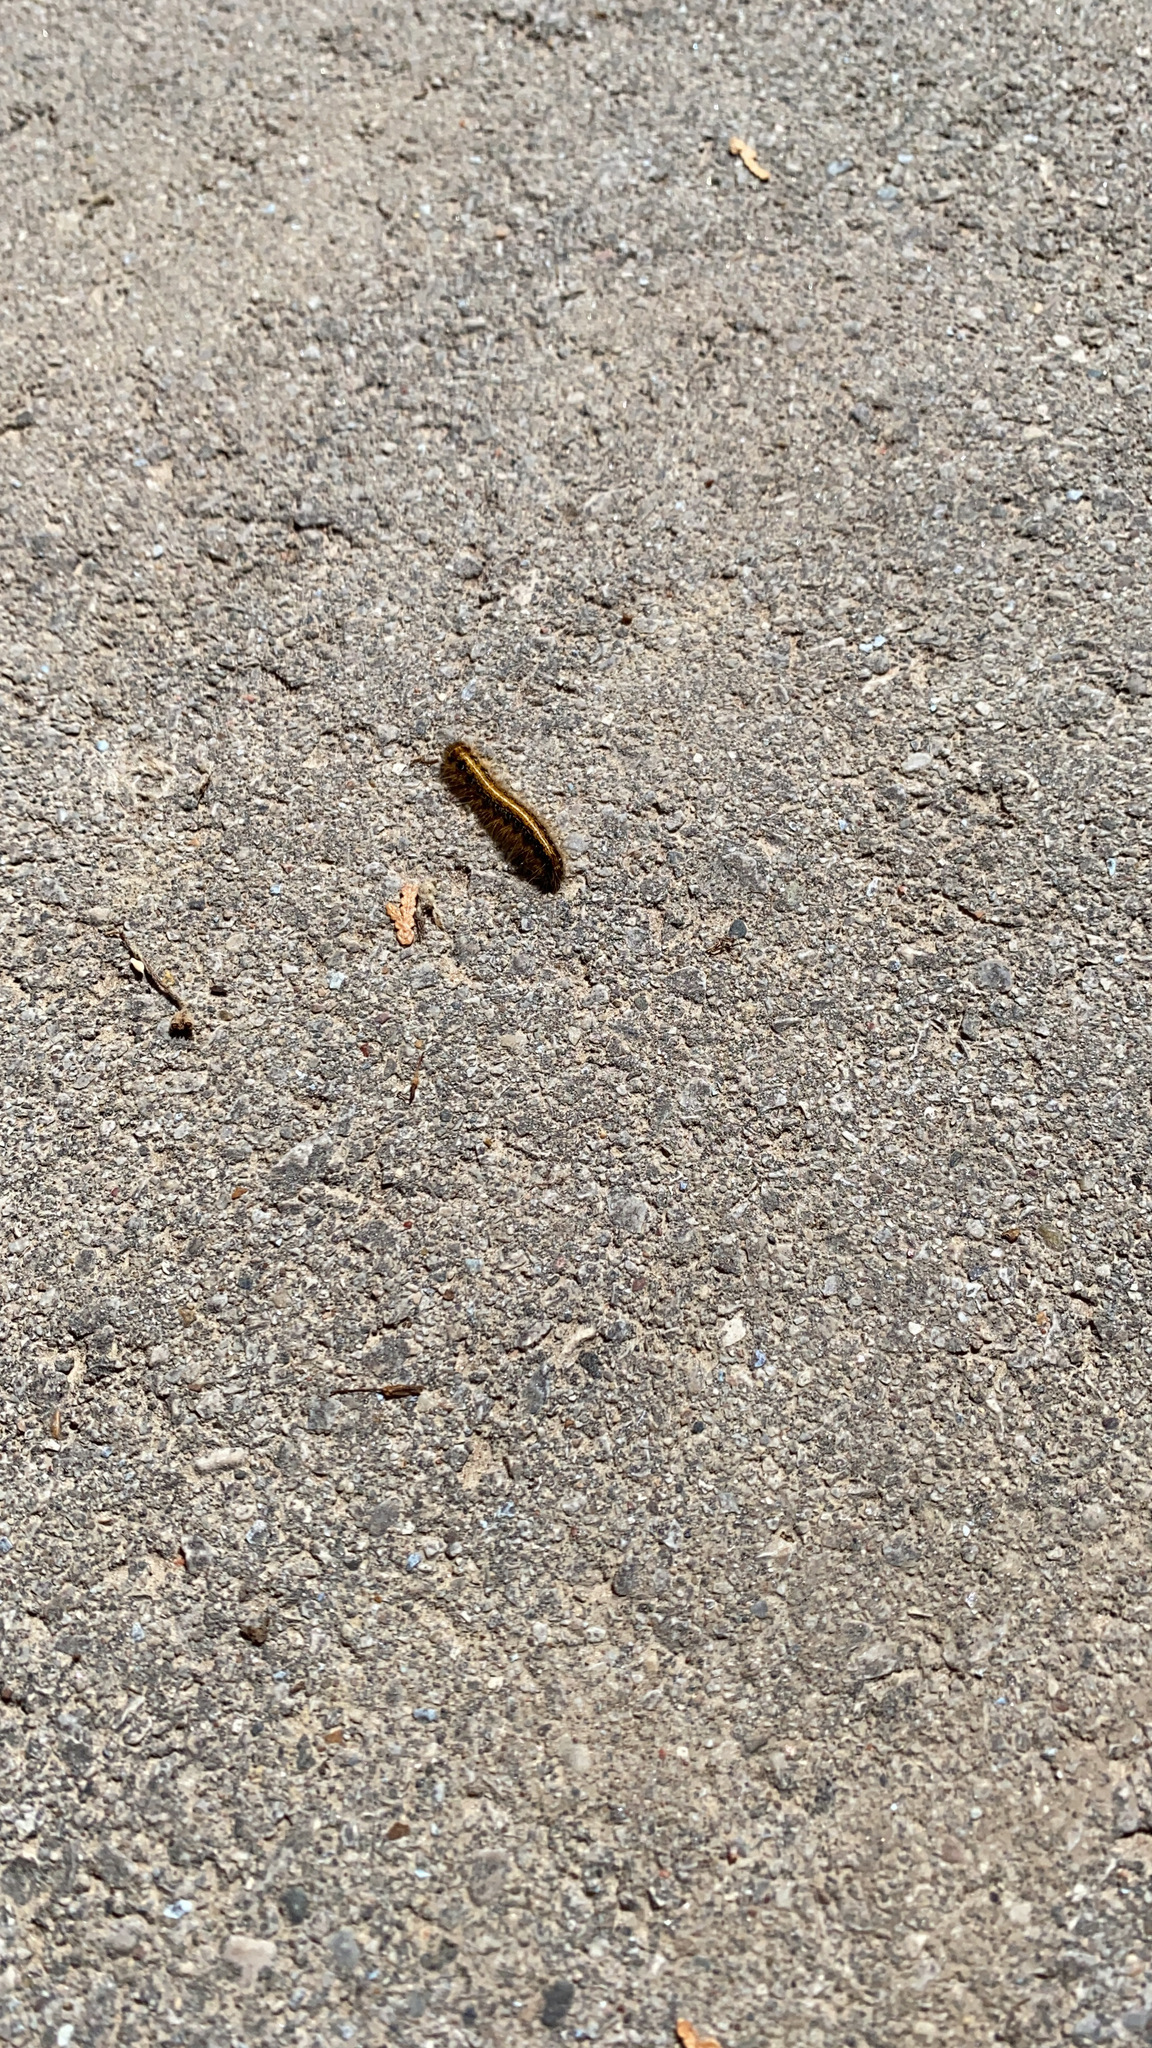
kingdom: Animalia
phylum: Arthropoda
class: Insecta
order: Lepidoptera
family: Lasiocampidae
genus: Malacosoma
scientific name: Malacosoma americana
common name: Eastern tent caterpillar moth
